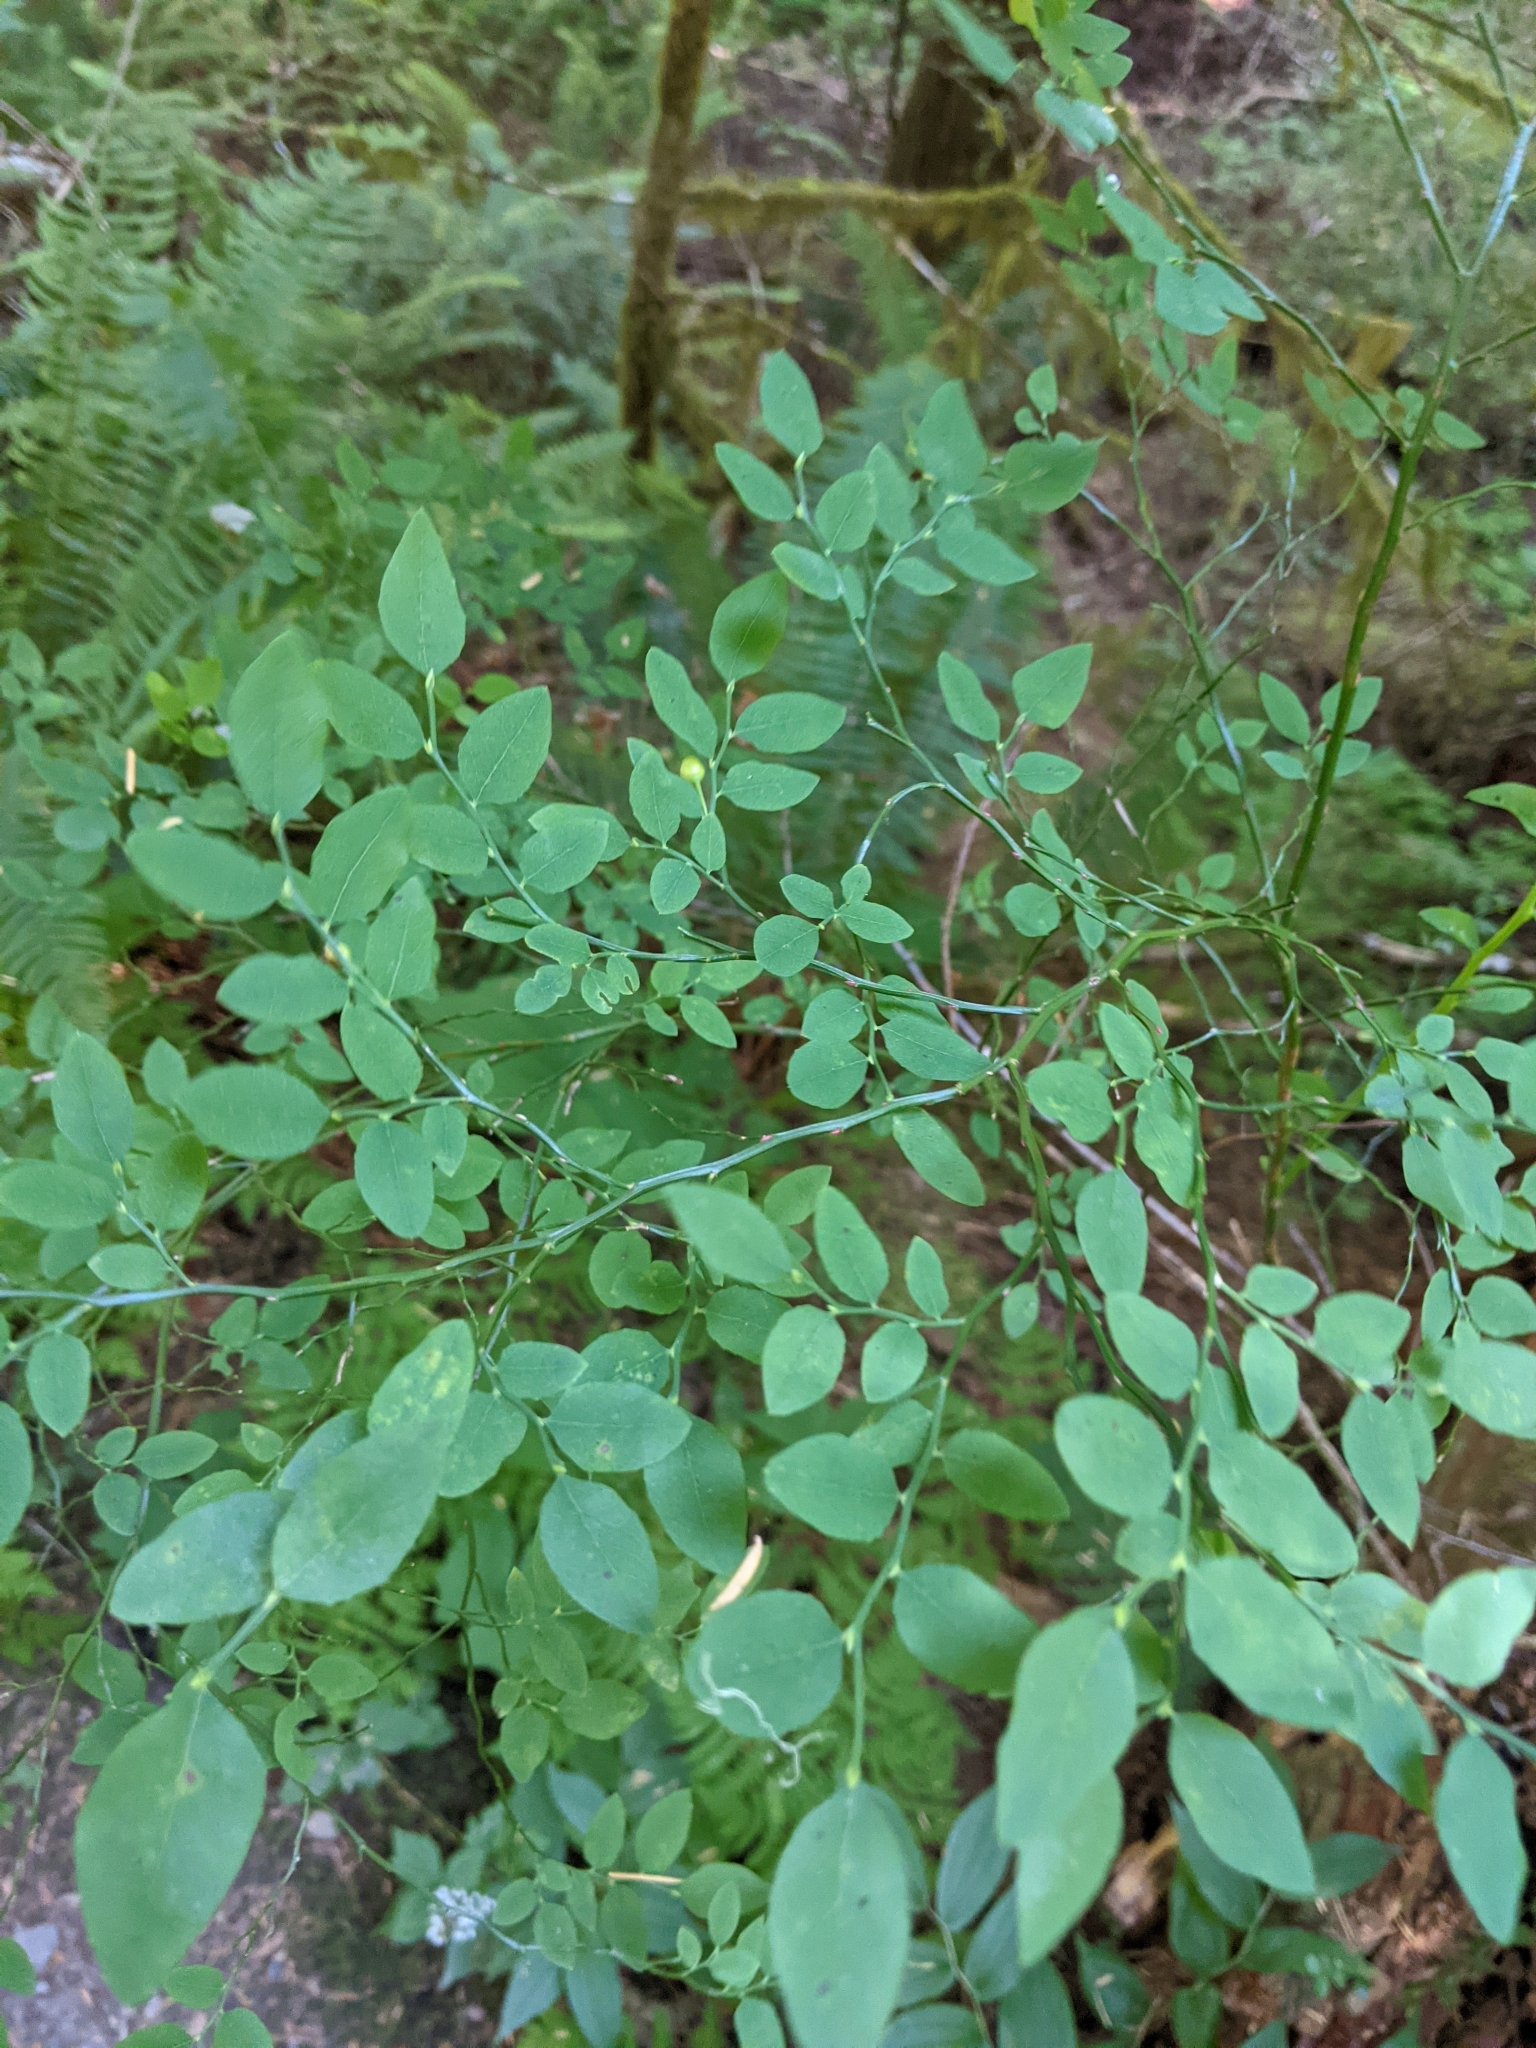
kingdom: Plantae
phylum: Tracheophyta
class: Magnoliopsida
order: Ericales
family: Ericaceae
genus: Vaccinium
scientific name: Vaccinium parvifolium
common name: Red-huckleberry
